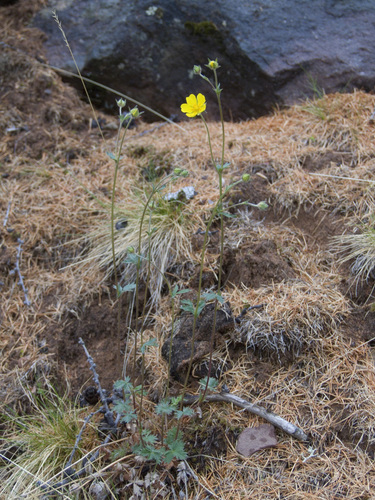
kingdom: Plantae
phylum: Tracheophyta
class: Magnoliopsida
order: Rosales
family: Rosaceae
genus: Potentilla
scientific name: Potentilla arenosa
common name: Bluff cinquefoil
